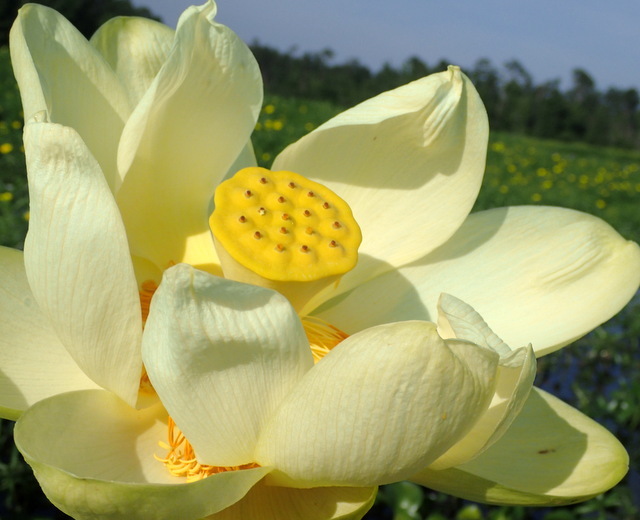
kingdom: Plantae
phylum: Tracheophyta
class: Magnoliopsida
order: Proteales
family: Nelumbonaceae
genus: Nelumbo
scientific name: Nelumbo lutea
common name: American lotus
